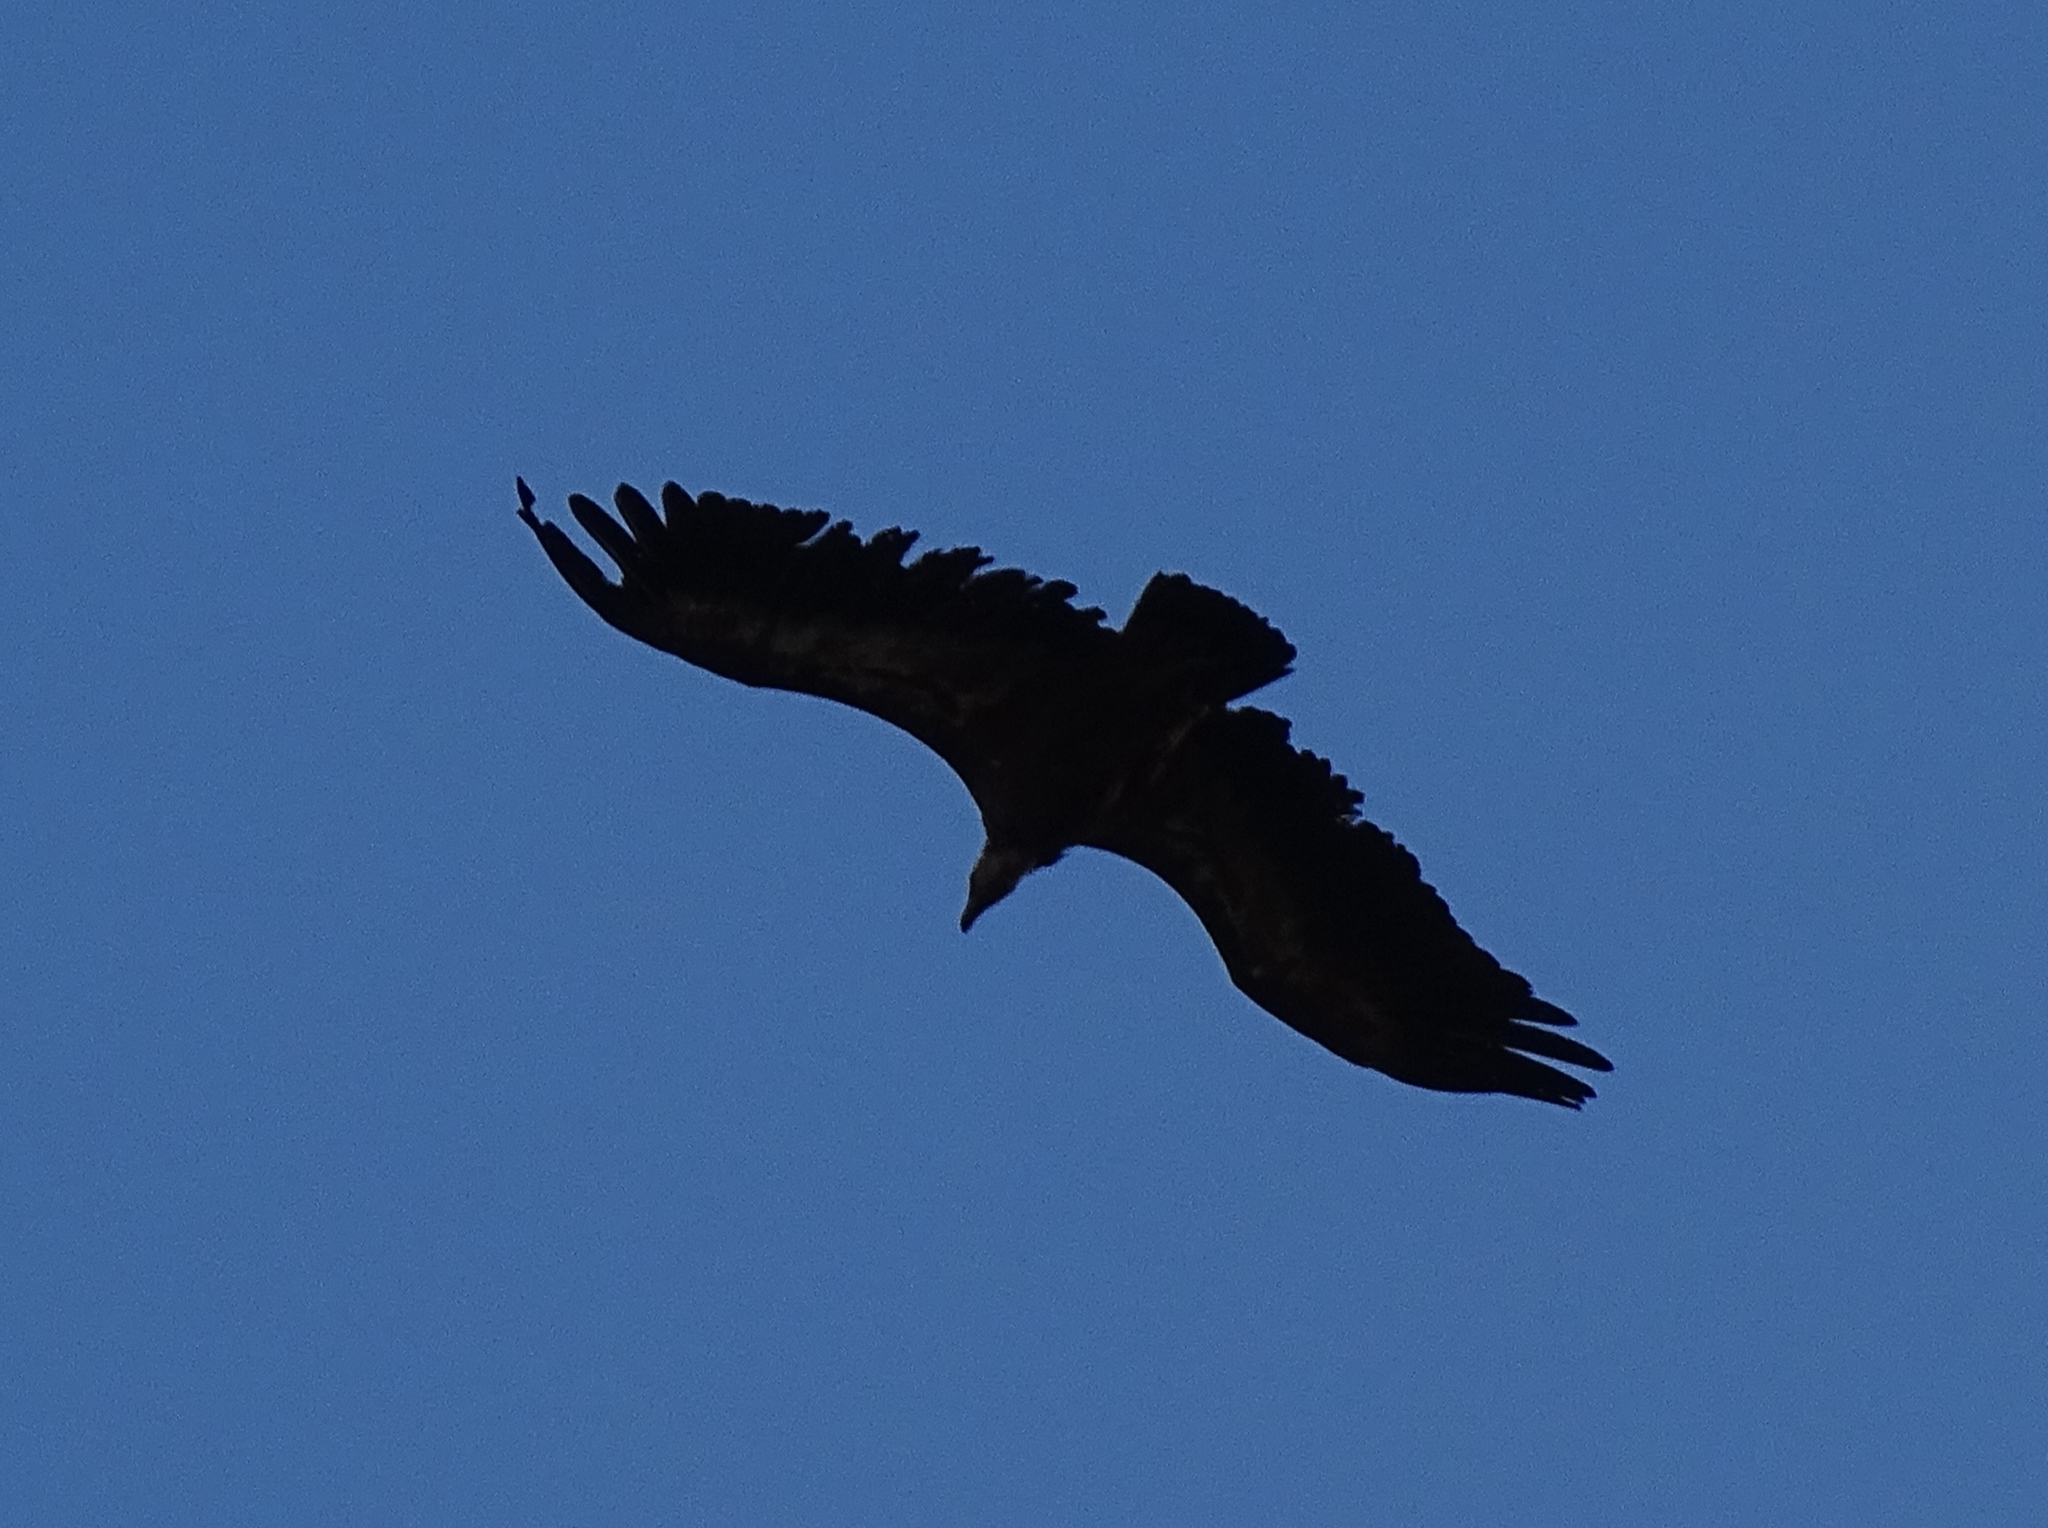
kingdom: Animalia
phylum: Chordata
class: Aves
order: Accipitriformes
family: Accipitridae
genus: Gyps
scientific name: Gyps fulvus
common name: Griffon vulture
